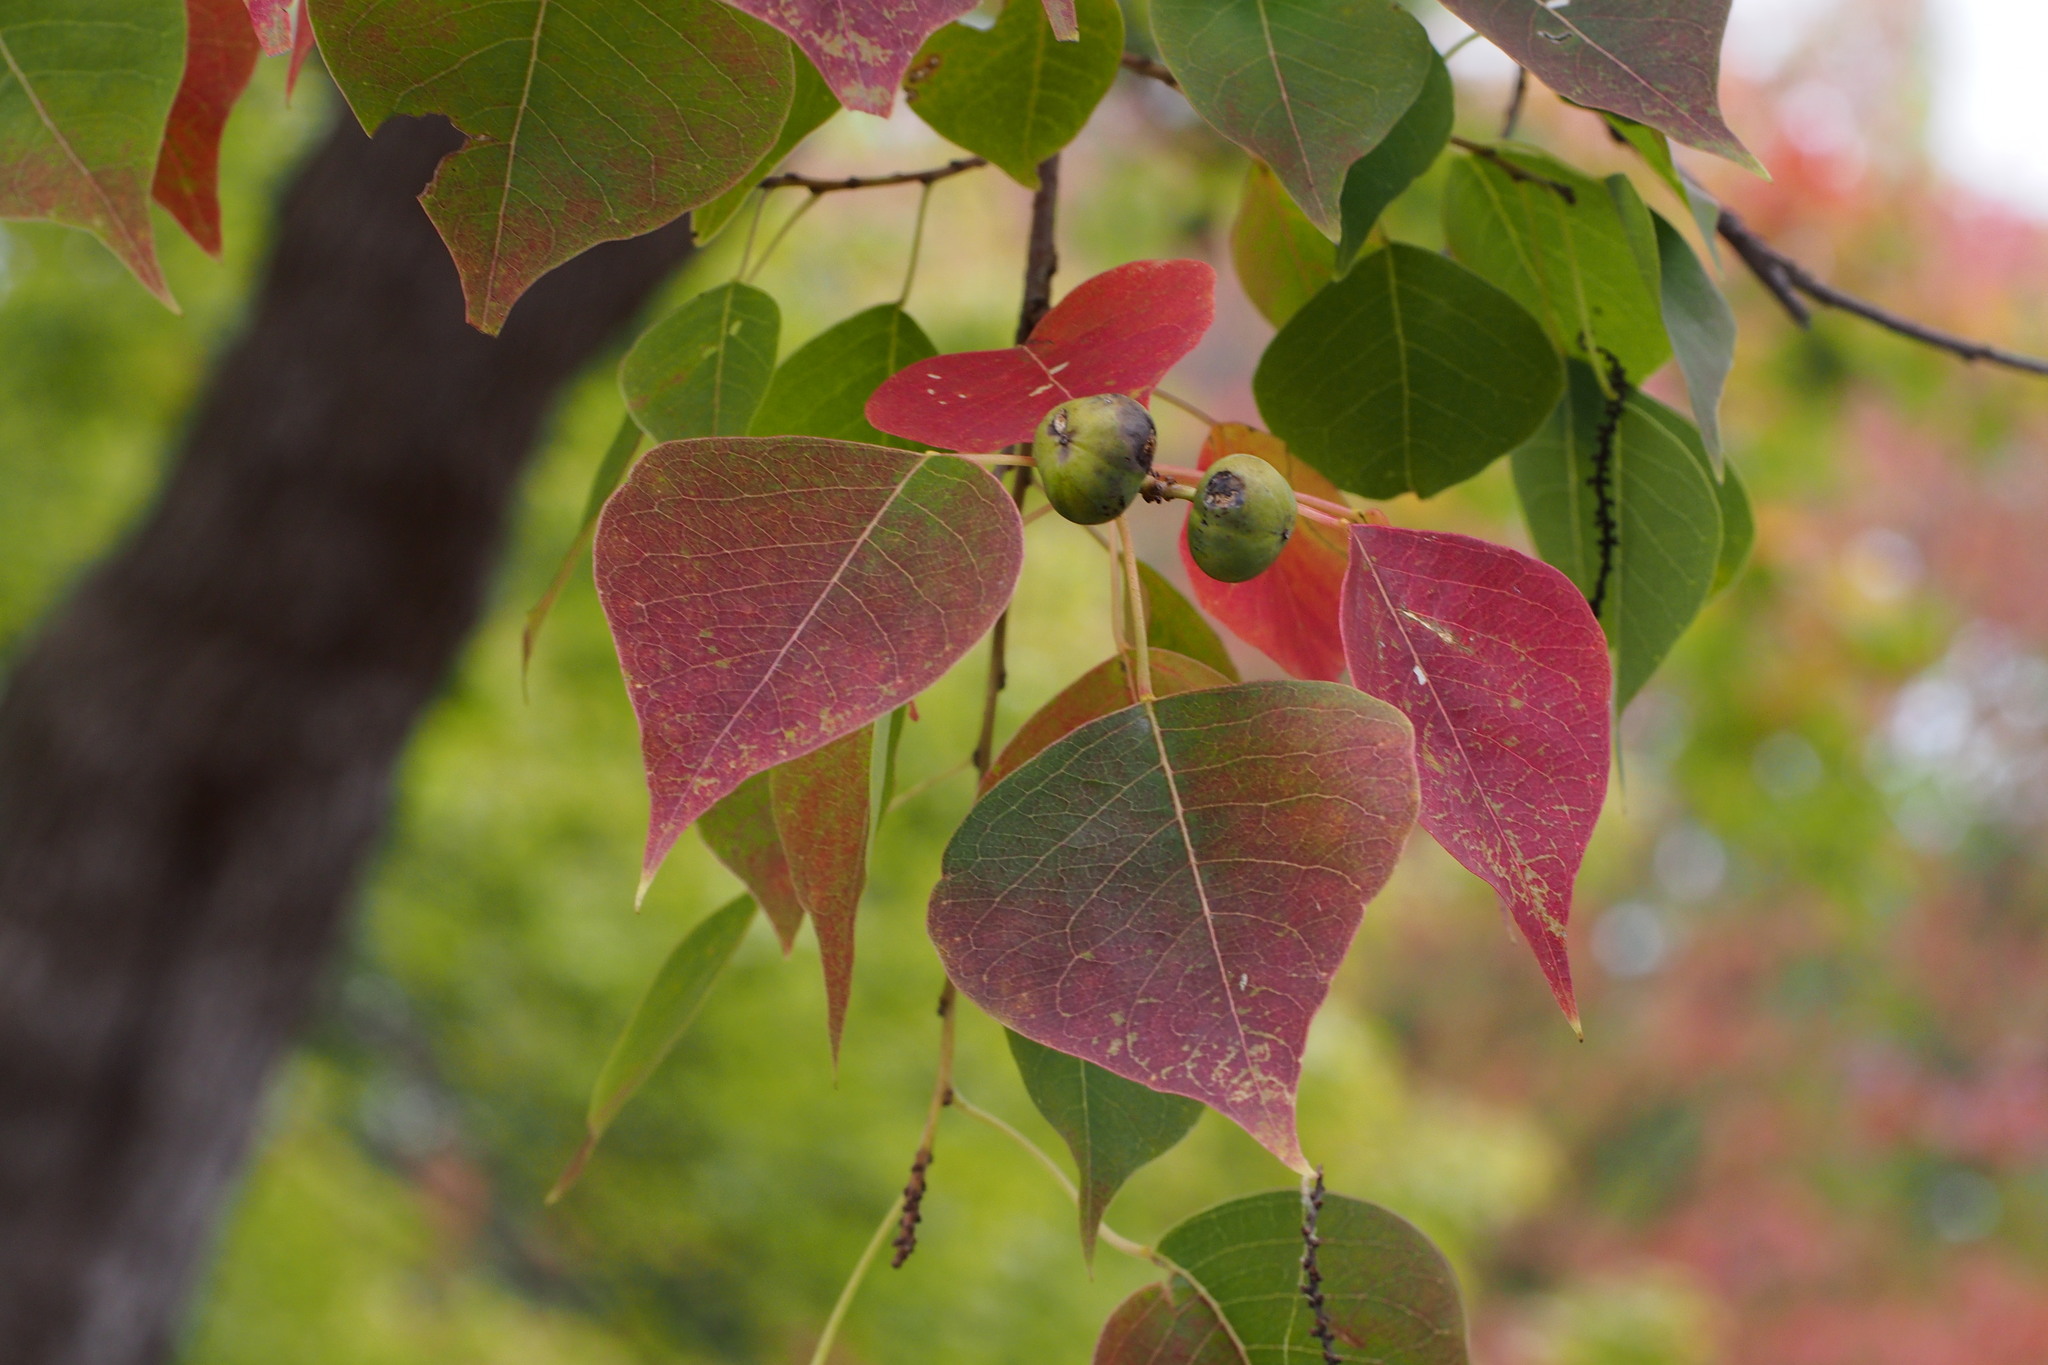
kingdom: Plantae
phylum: Tracheophyta
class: Magnoliopsida
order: Malpighiales
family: Euphorbiaceae
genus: Triadica
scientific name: Triadica sebifera
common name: Chinese tallow
